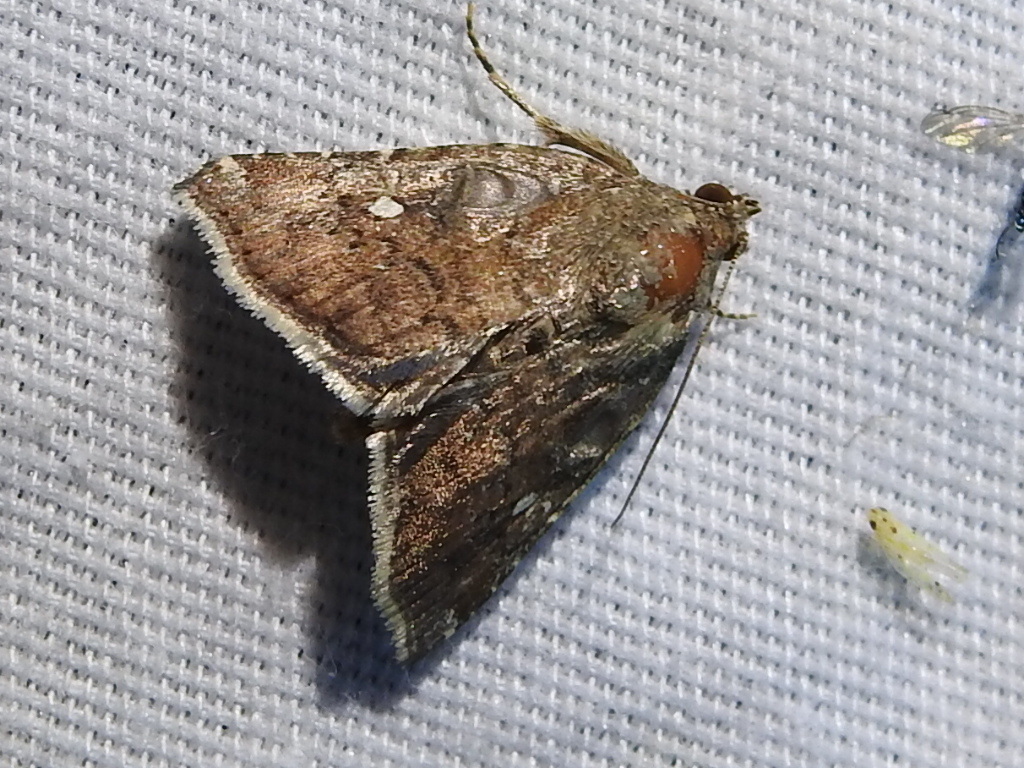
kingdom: Animalia
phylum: Arthropoda
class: Insecta
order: Lepidoptera
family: Noctuidae
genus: Amyna
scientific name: Amyna bullula
